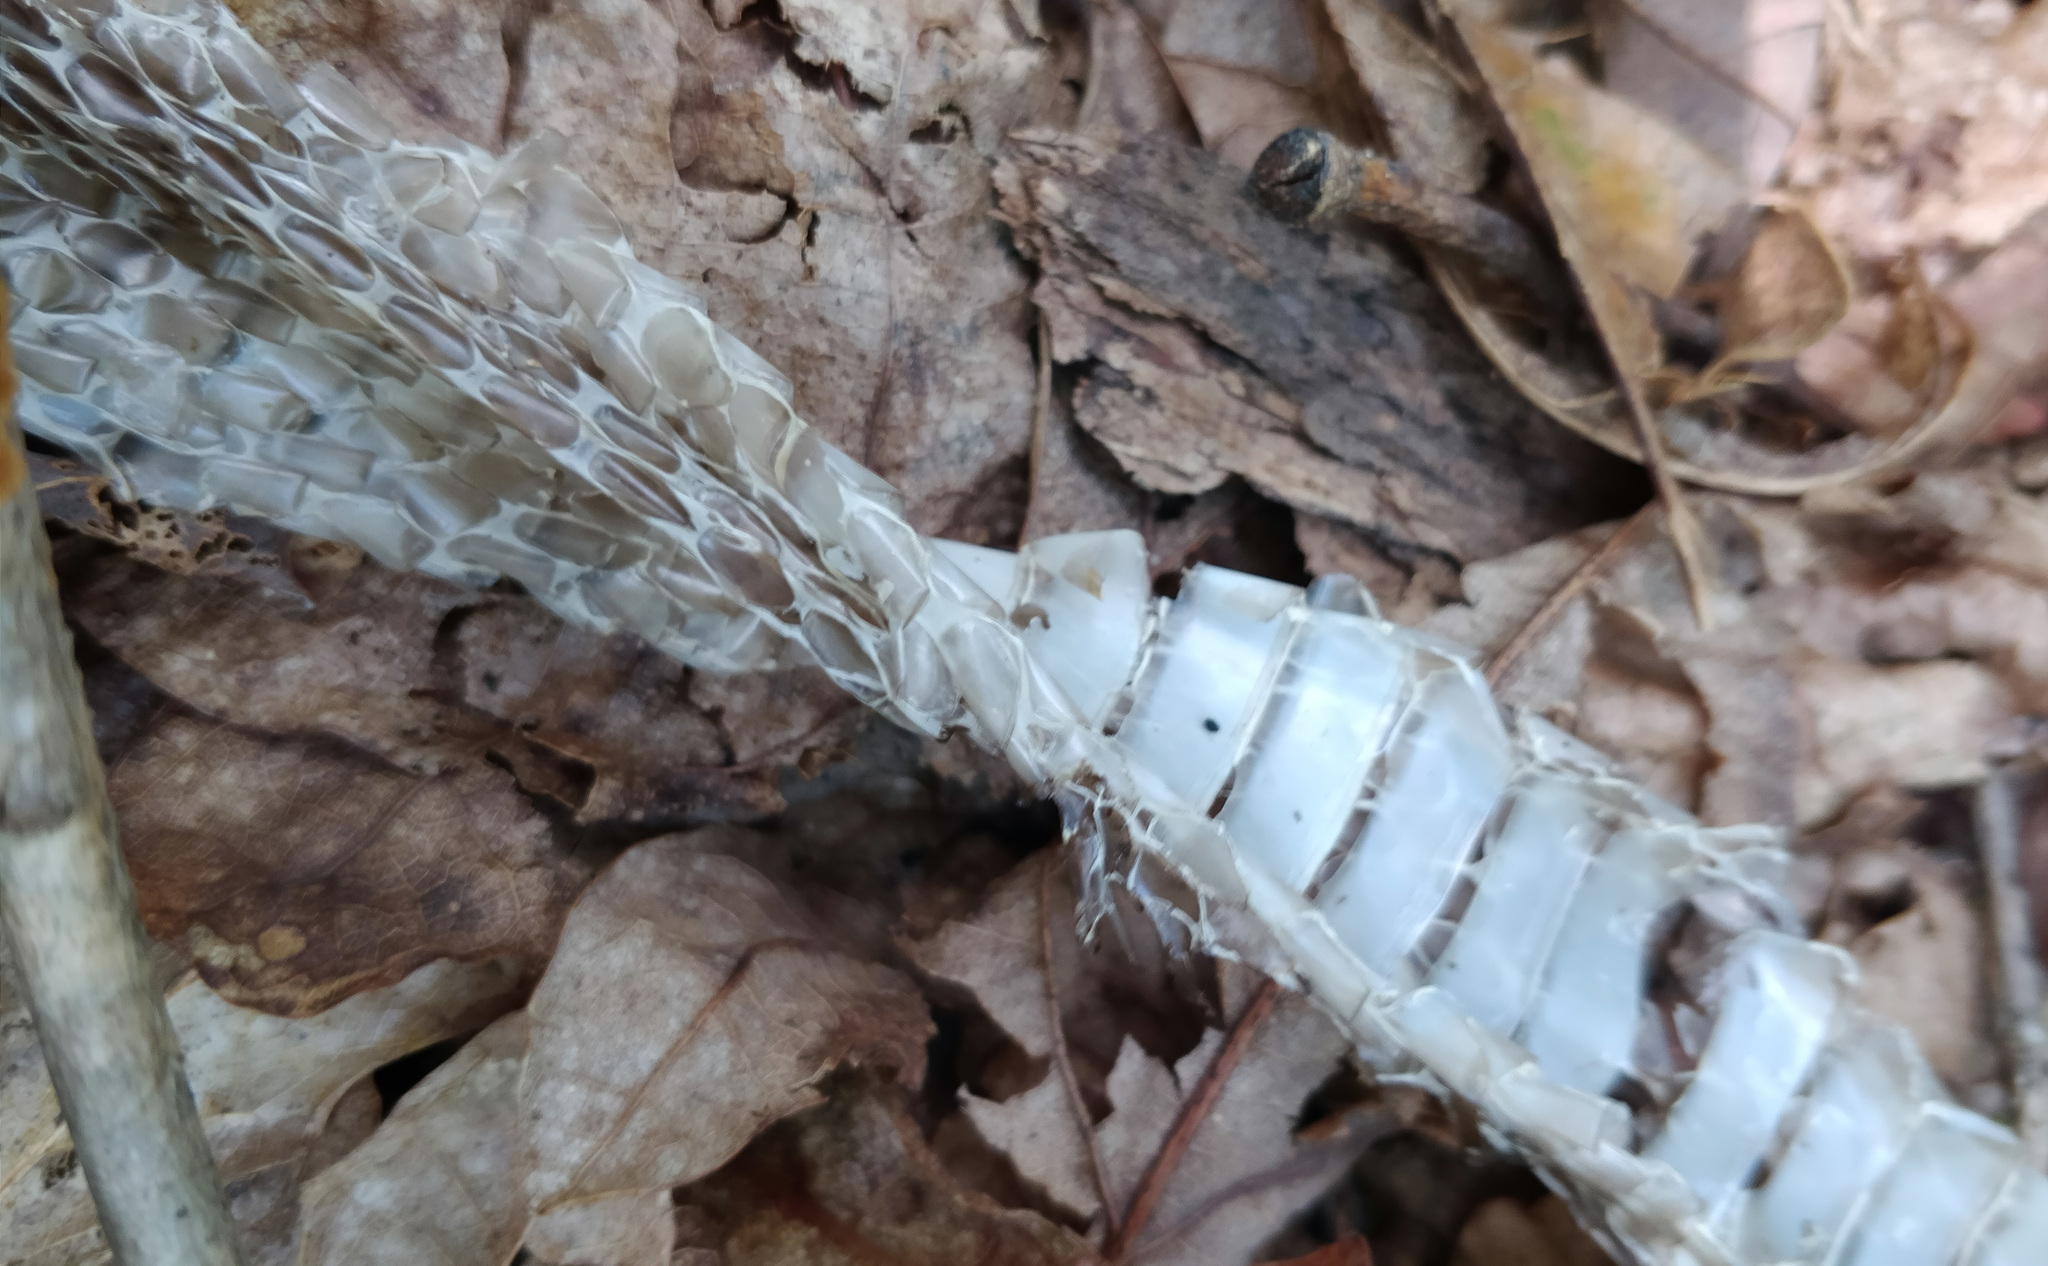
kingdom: Animalia
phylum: Chordata
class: Squamata
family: Colubridae
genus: Pantherophis
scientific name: Pantherophis alleghaniensis
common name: Eastern rat snake
